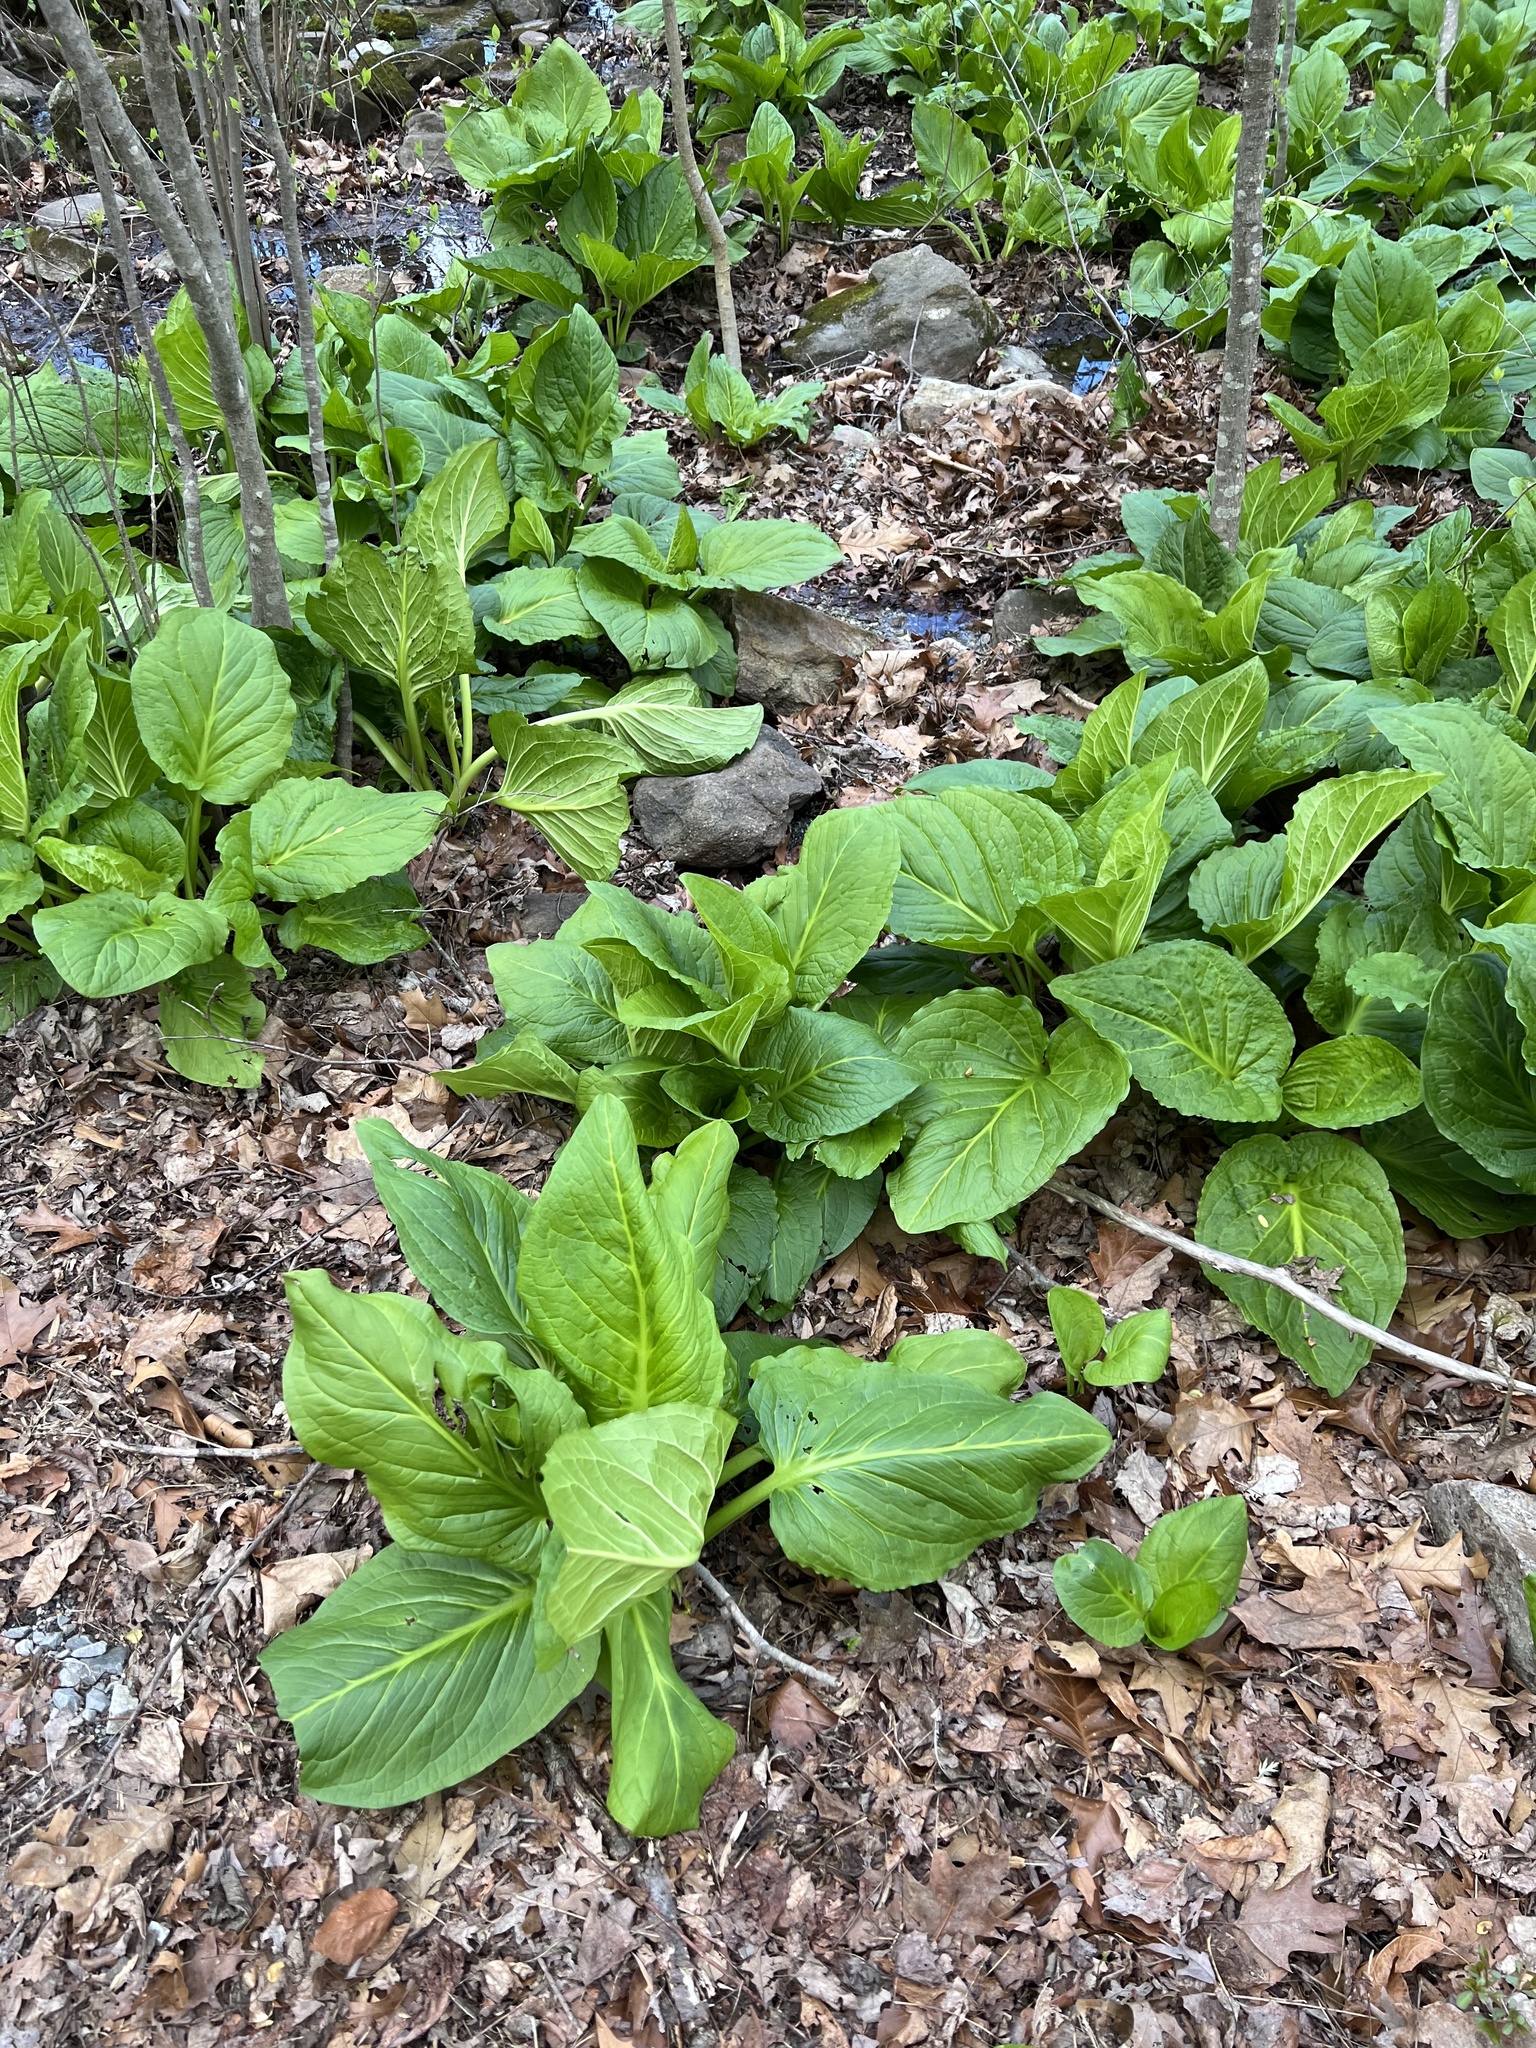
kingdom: Plantae
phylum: Tracheophyta
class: Liliopsida
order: Alismatales
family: Araceae
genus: Symplocarpus
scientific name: Symplocarpus foetidus
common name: Eastern skunk cabbage
